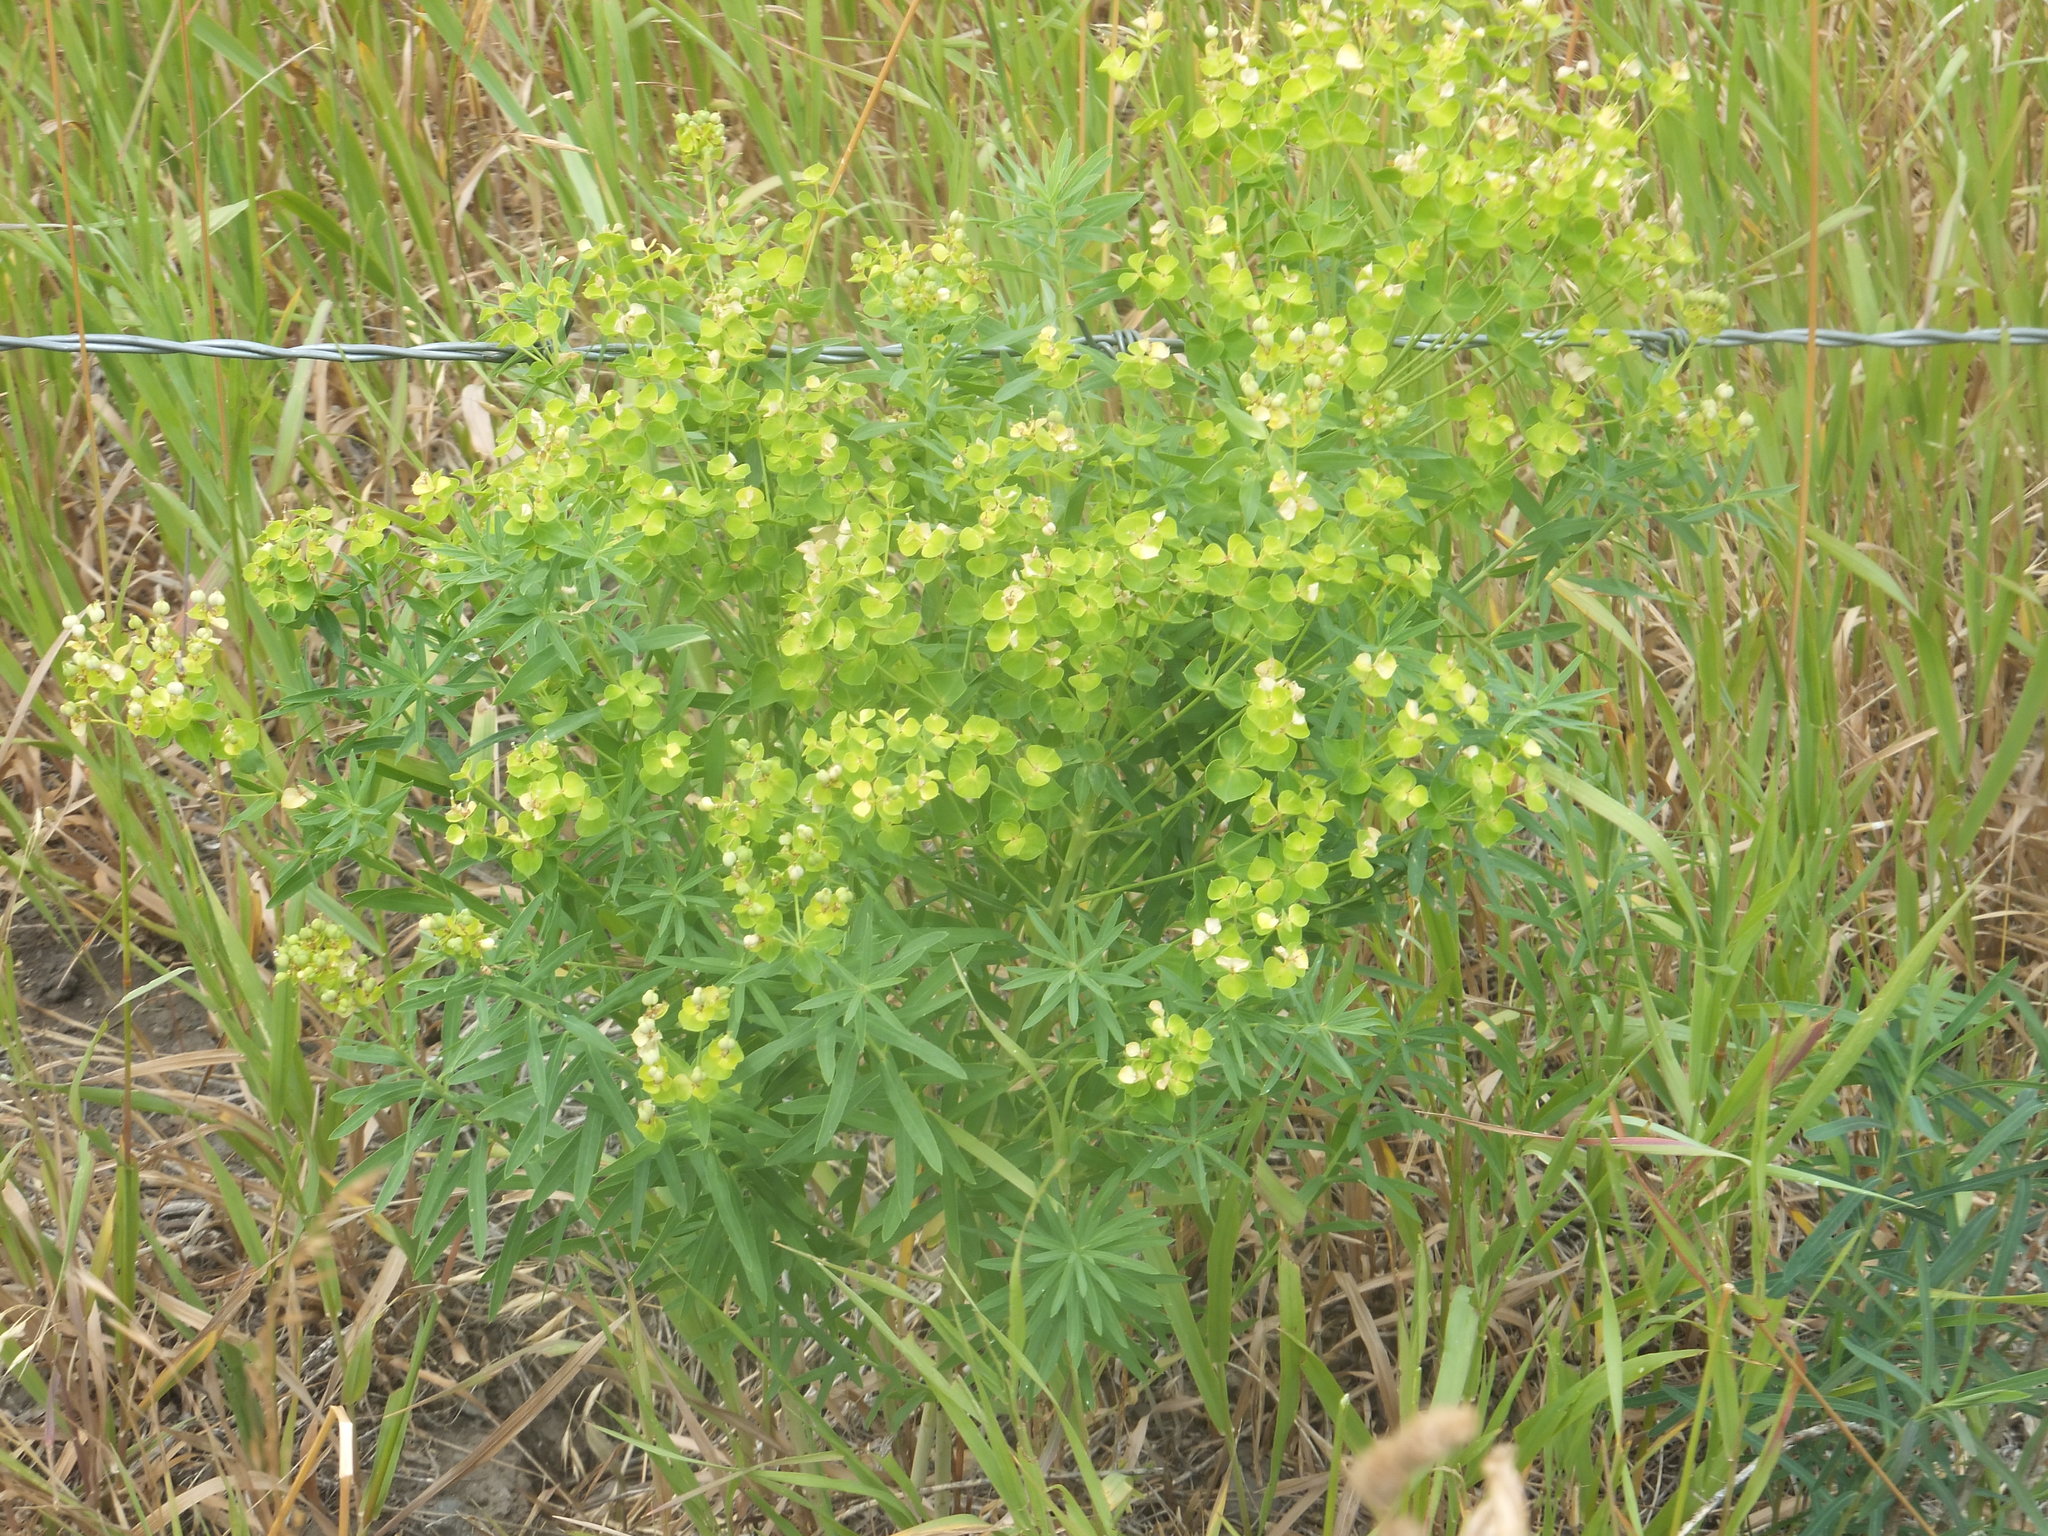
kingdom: Plantae
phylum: Tracheophyta
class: Magnoliopsida
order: Malpighiales
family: Euphorbiaceae
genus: Euphorbia
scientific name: Euphorbia virgata
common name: Leafy spurge
